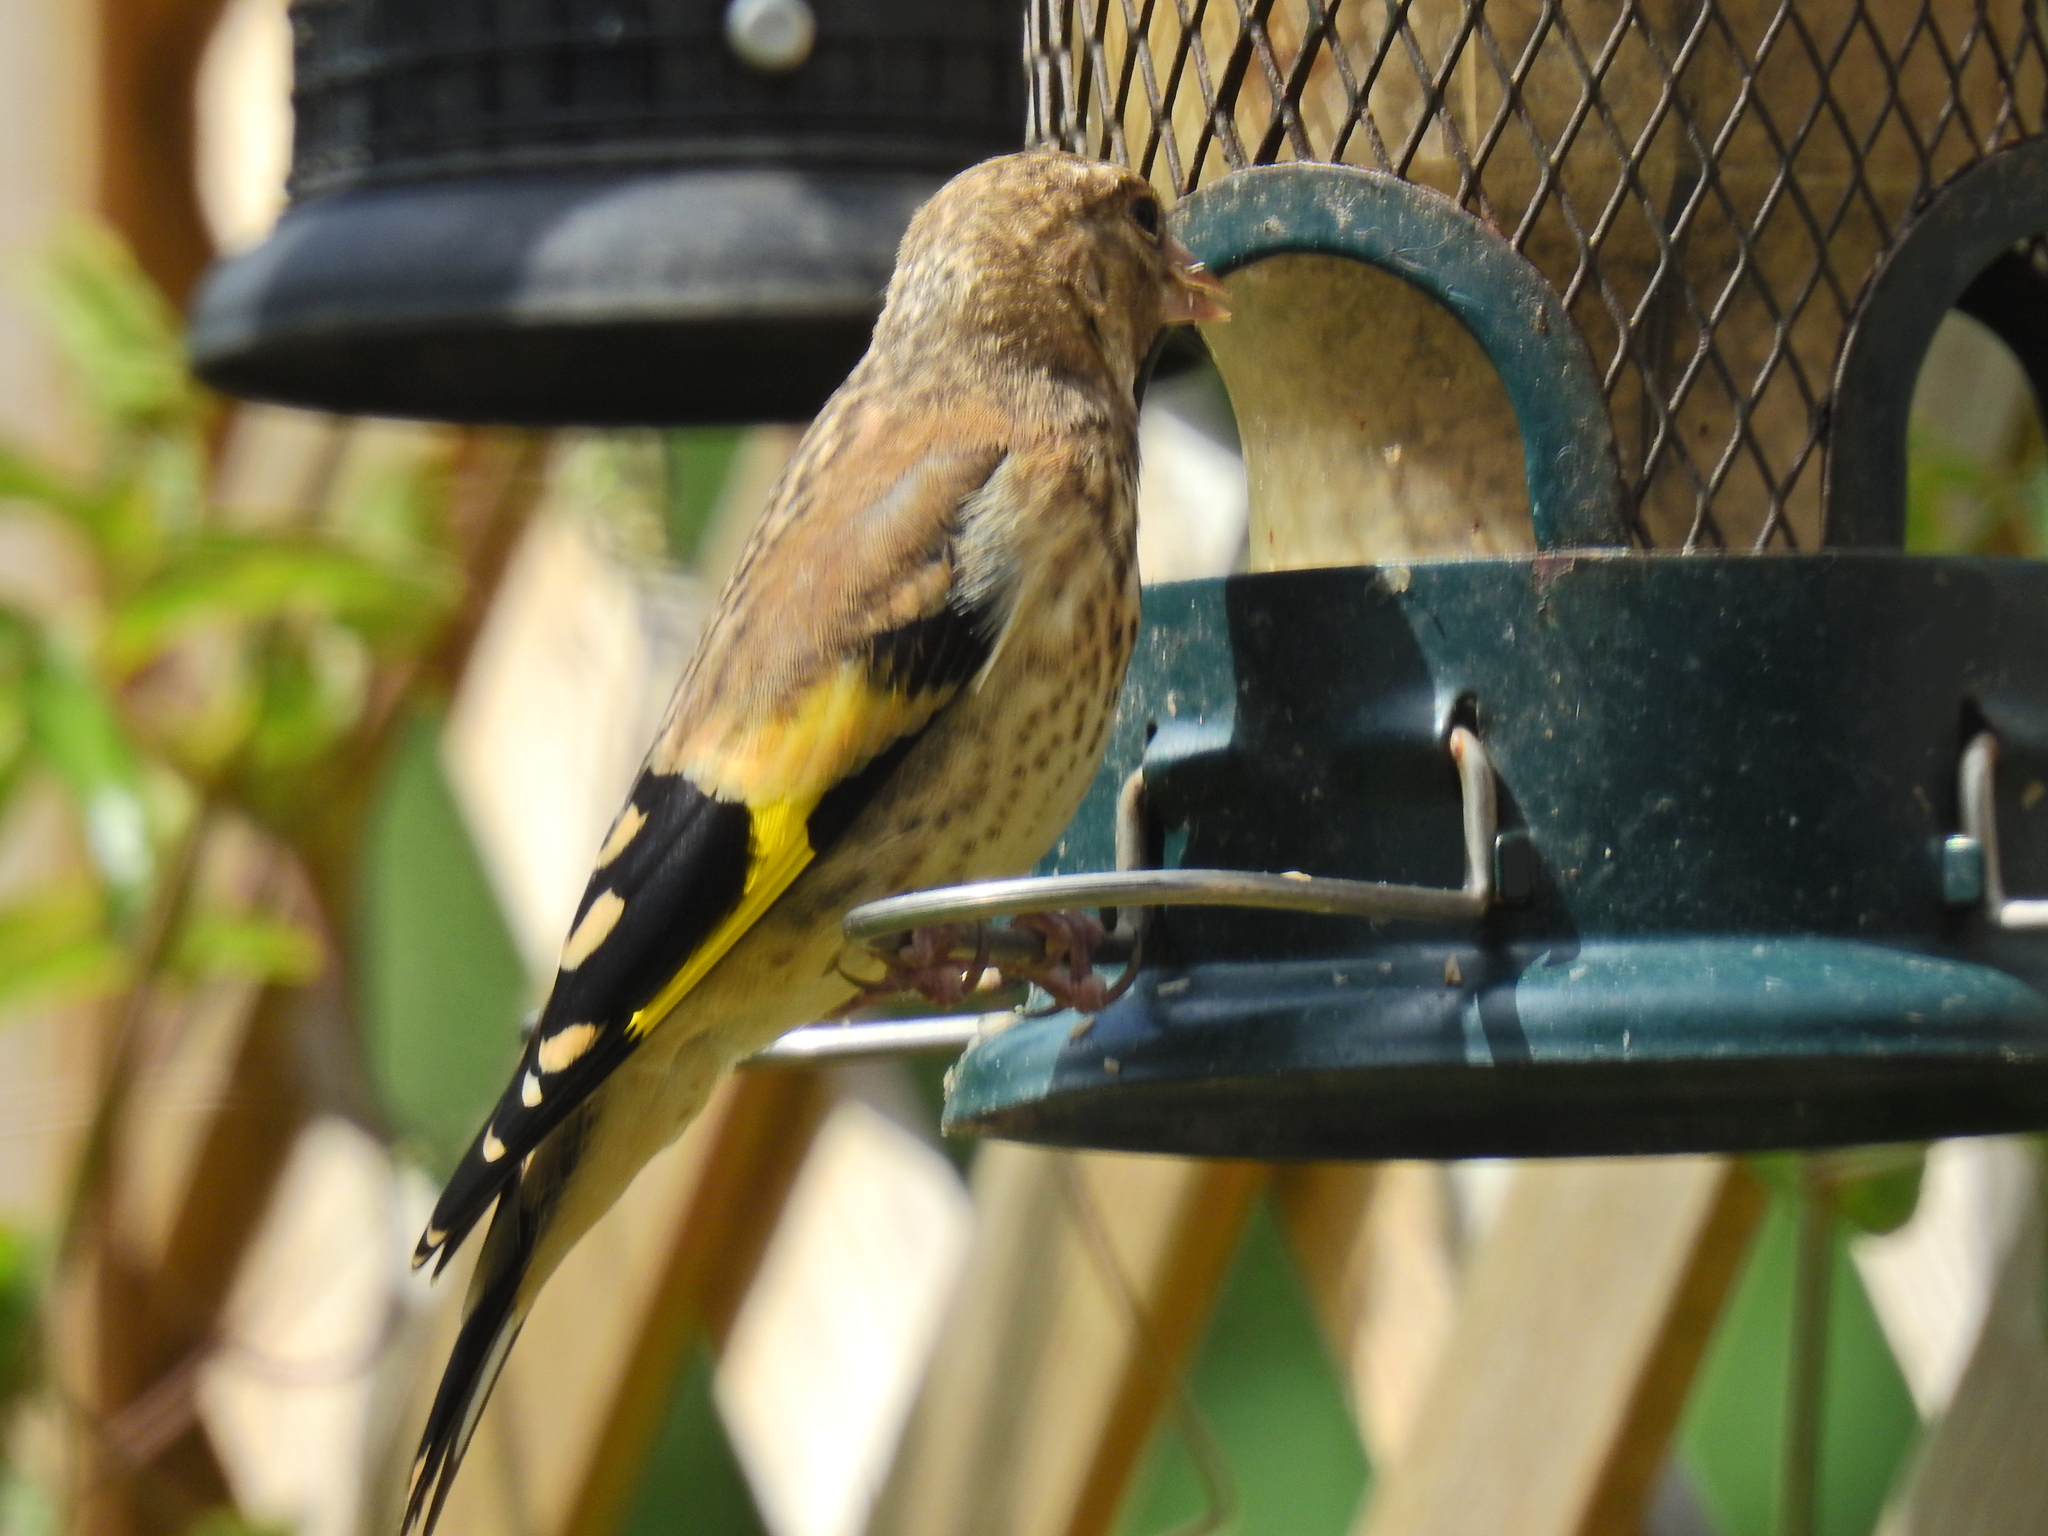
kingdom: Animalia
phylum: Chordata
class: Aves
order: Passeriformes
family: Fringillidae
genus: Carduelis
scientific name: Carduelis carduelis
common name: European goldfinch
